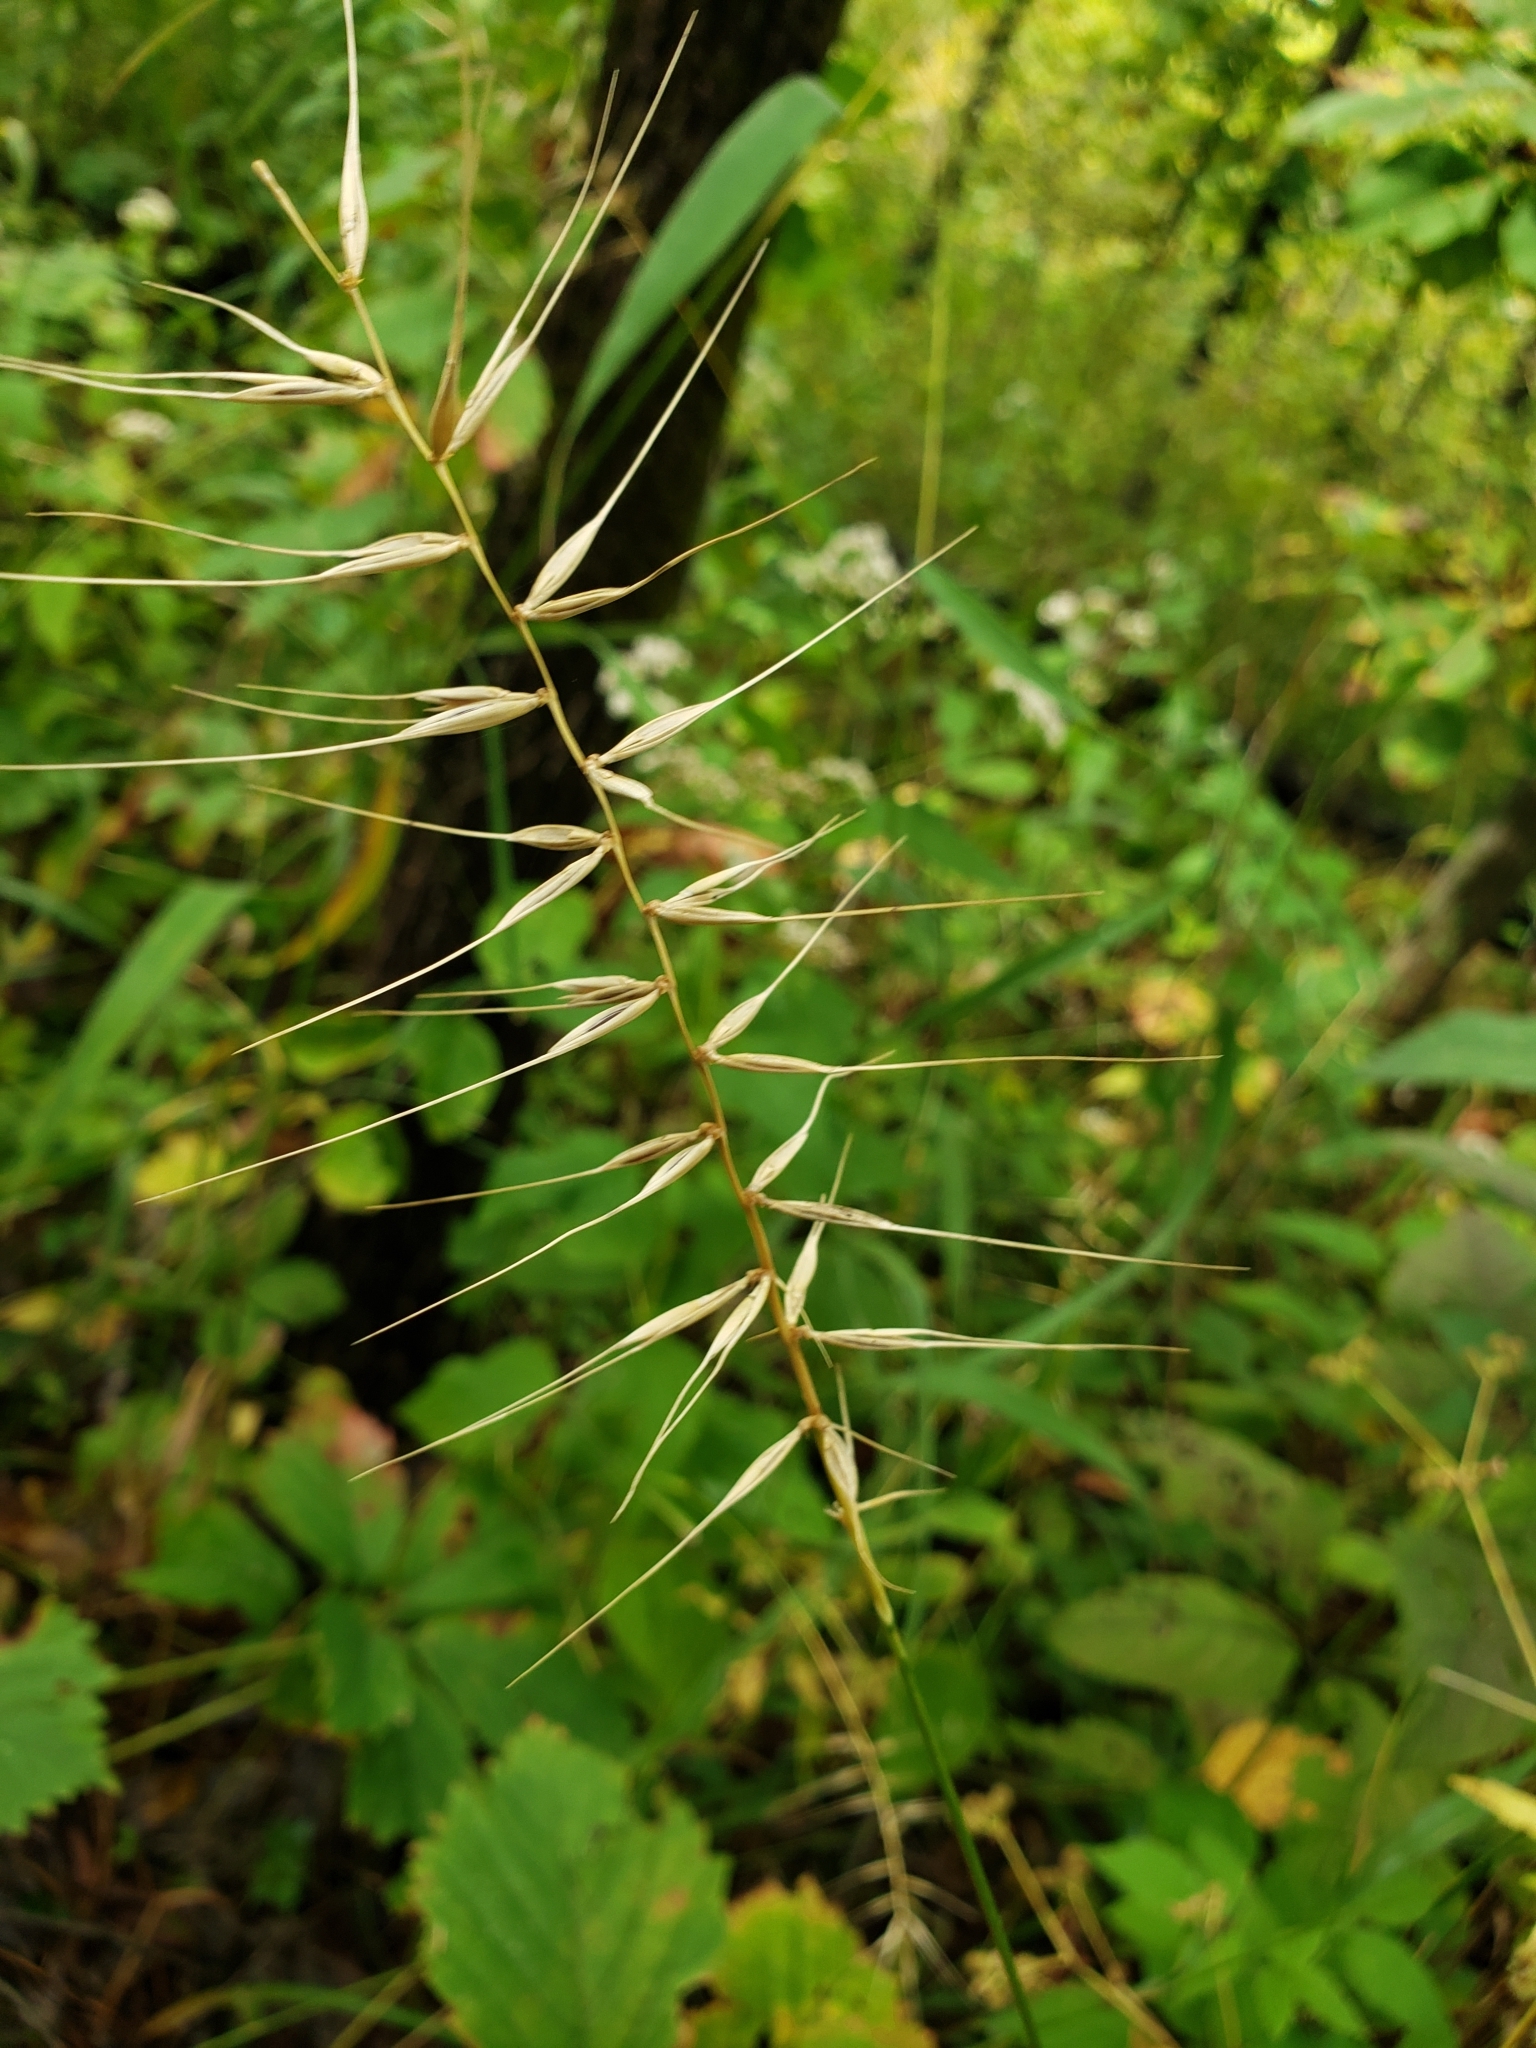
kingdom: Plantae
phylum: Tracheophyta
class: Liliopsida
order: Poales
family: Poaceae
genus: Elymus
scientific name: Elymus hystrix
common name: Bottlebrush grass
